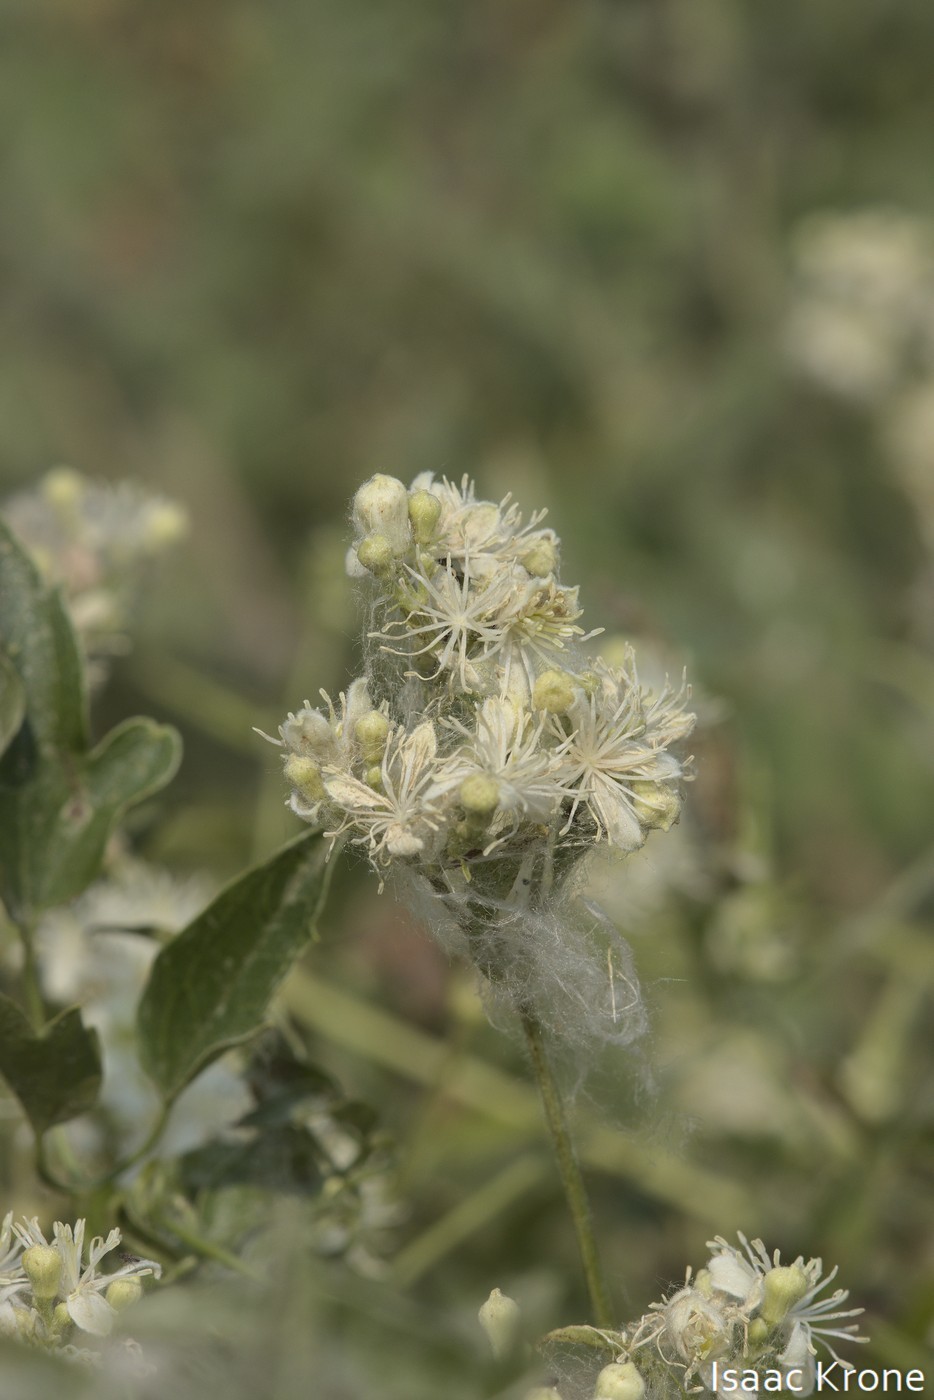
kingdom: Plantae
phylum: Tracheophyta
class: Magnoliopsida
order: Ranunculales
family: Ranunculaceae
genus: Clematis
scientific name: Clematis ligusticifolia
